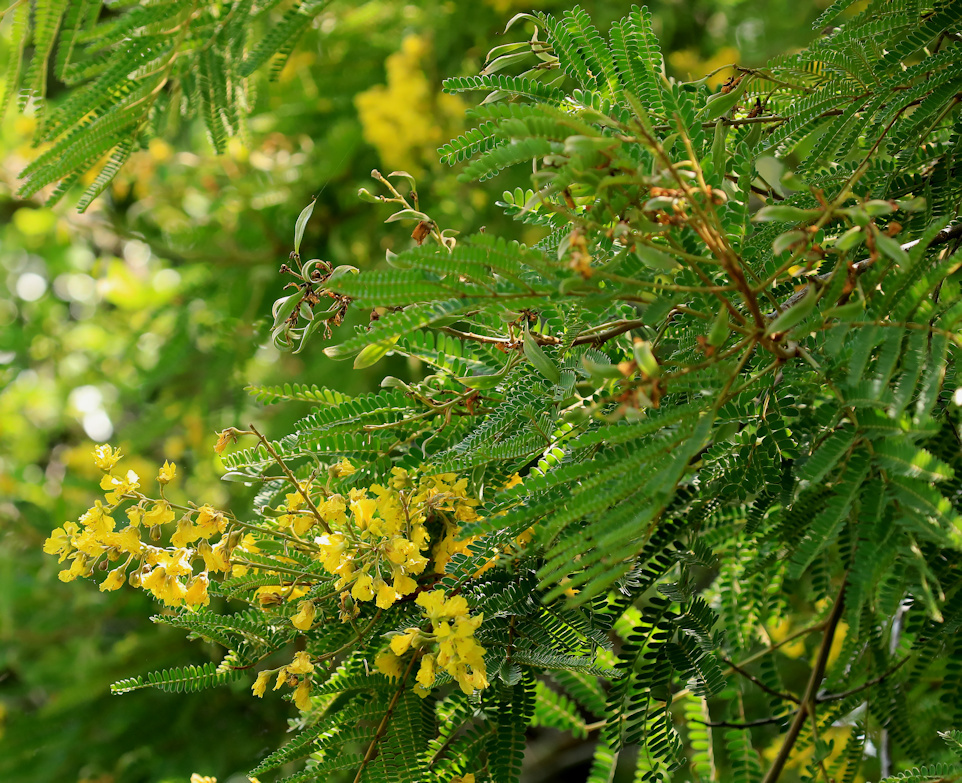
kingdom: Plantae
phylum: Tracheophyta
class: Magnoliopsida
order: Fabales
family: Fabaceae
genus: Peltophorum
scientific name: Peltophorum africanum
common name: African black wattle
